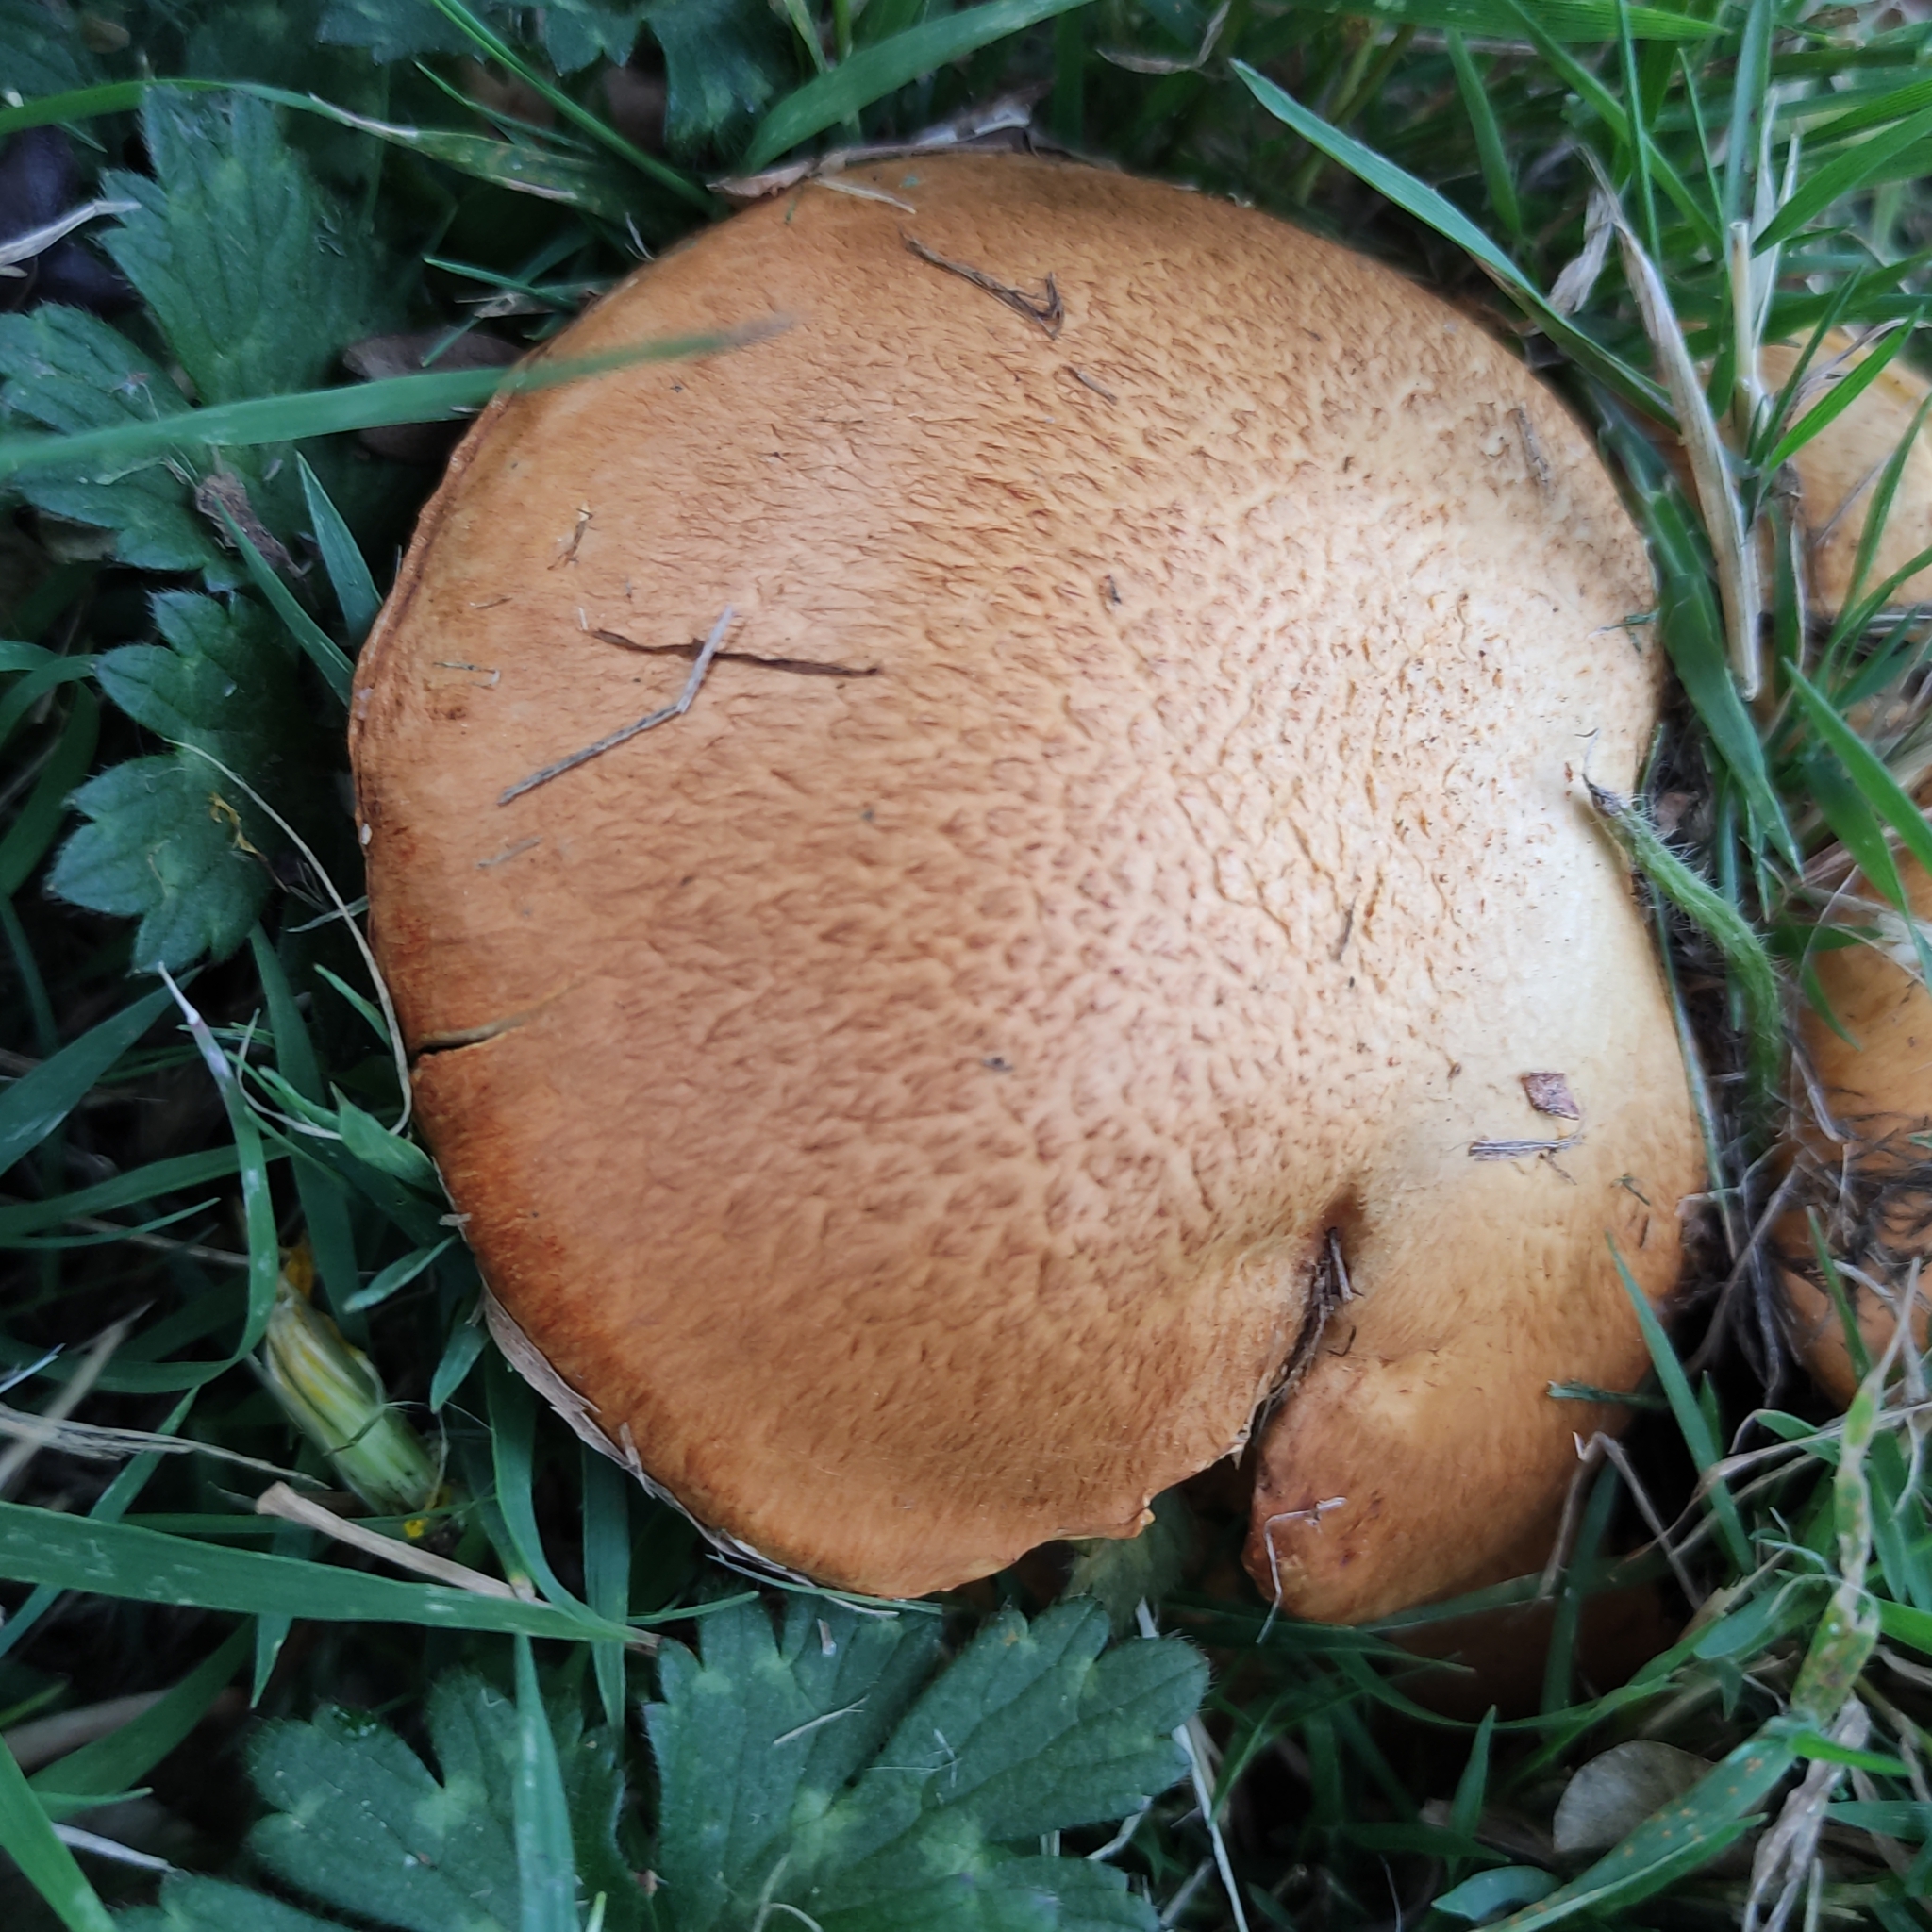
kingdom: Fungi
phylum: Basidiomycota
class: Agaricomycetes
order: Agaricales
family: Hymenogastraceae
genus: Gymnopilus
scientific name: Gymnopilus junonius
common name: Spectacular rustgill
